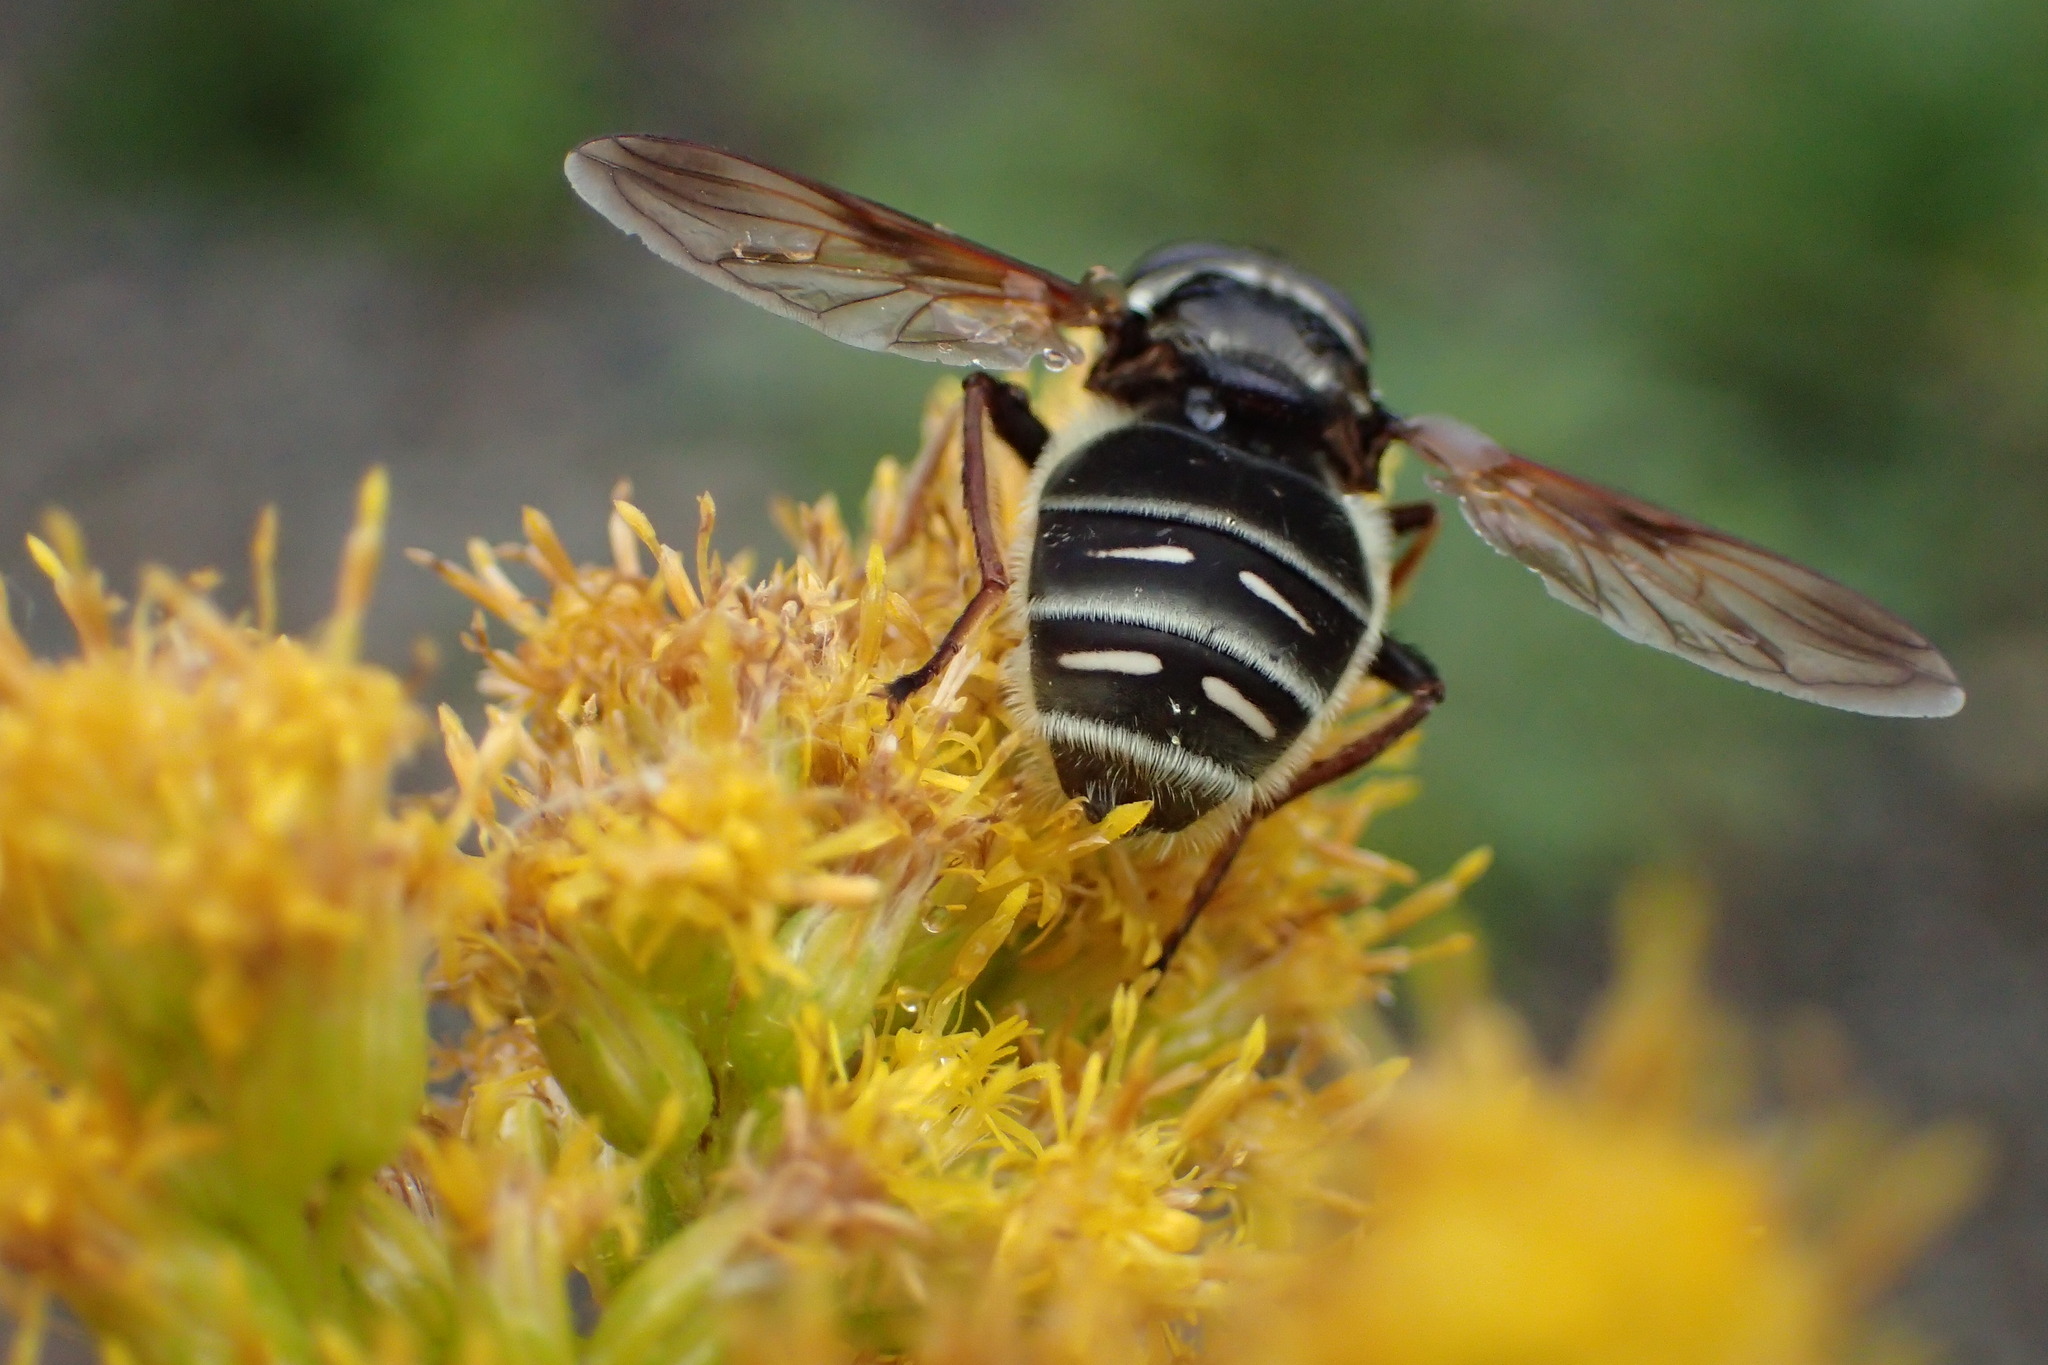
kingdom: Animalia
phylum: Arthropoda
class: Insecta
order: Diptera
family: Syrphidae
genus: Sericomyia
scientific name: Sericomyia militaris
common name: Narrow-banded pond fly
